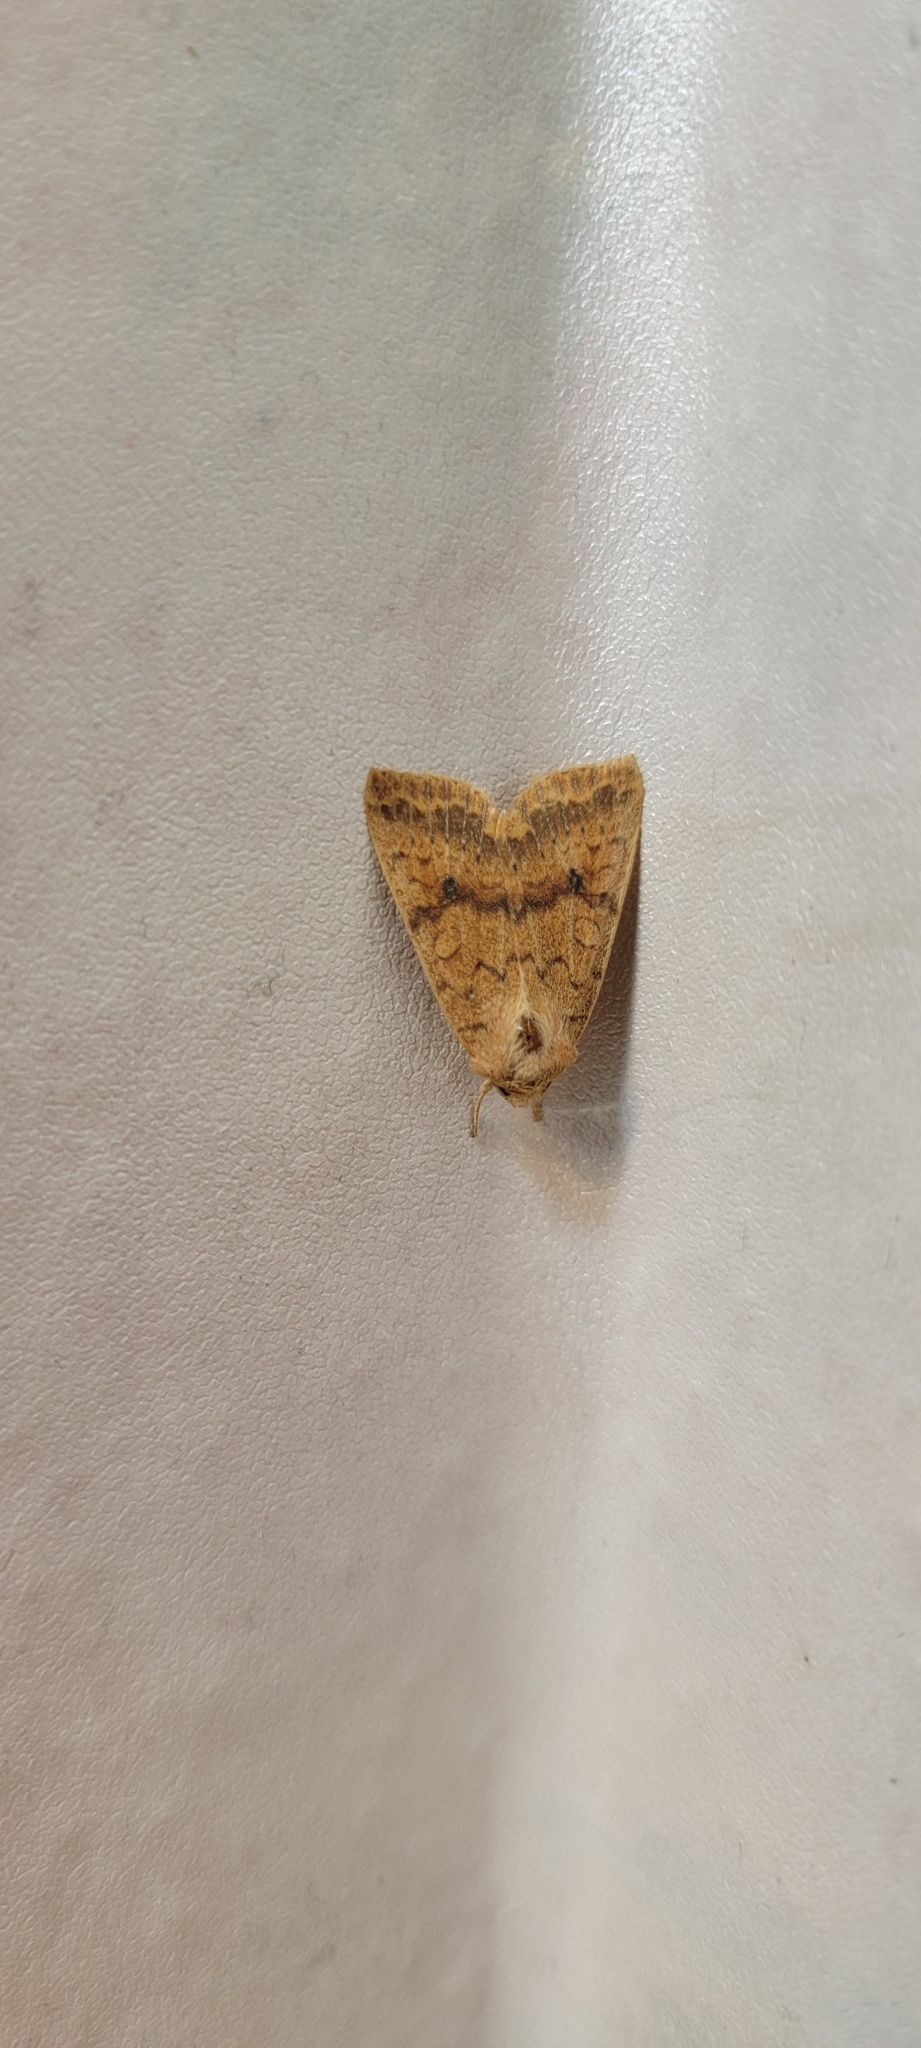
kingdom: Animalia
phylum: Arthropoda
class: Insecta
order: Lepidoptera
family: Noctuidae
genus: Agrochola
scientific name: Agrochola bicolorago
